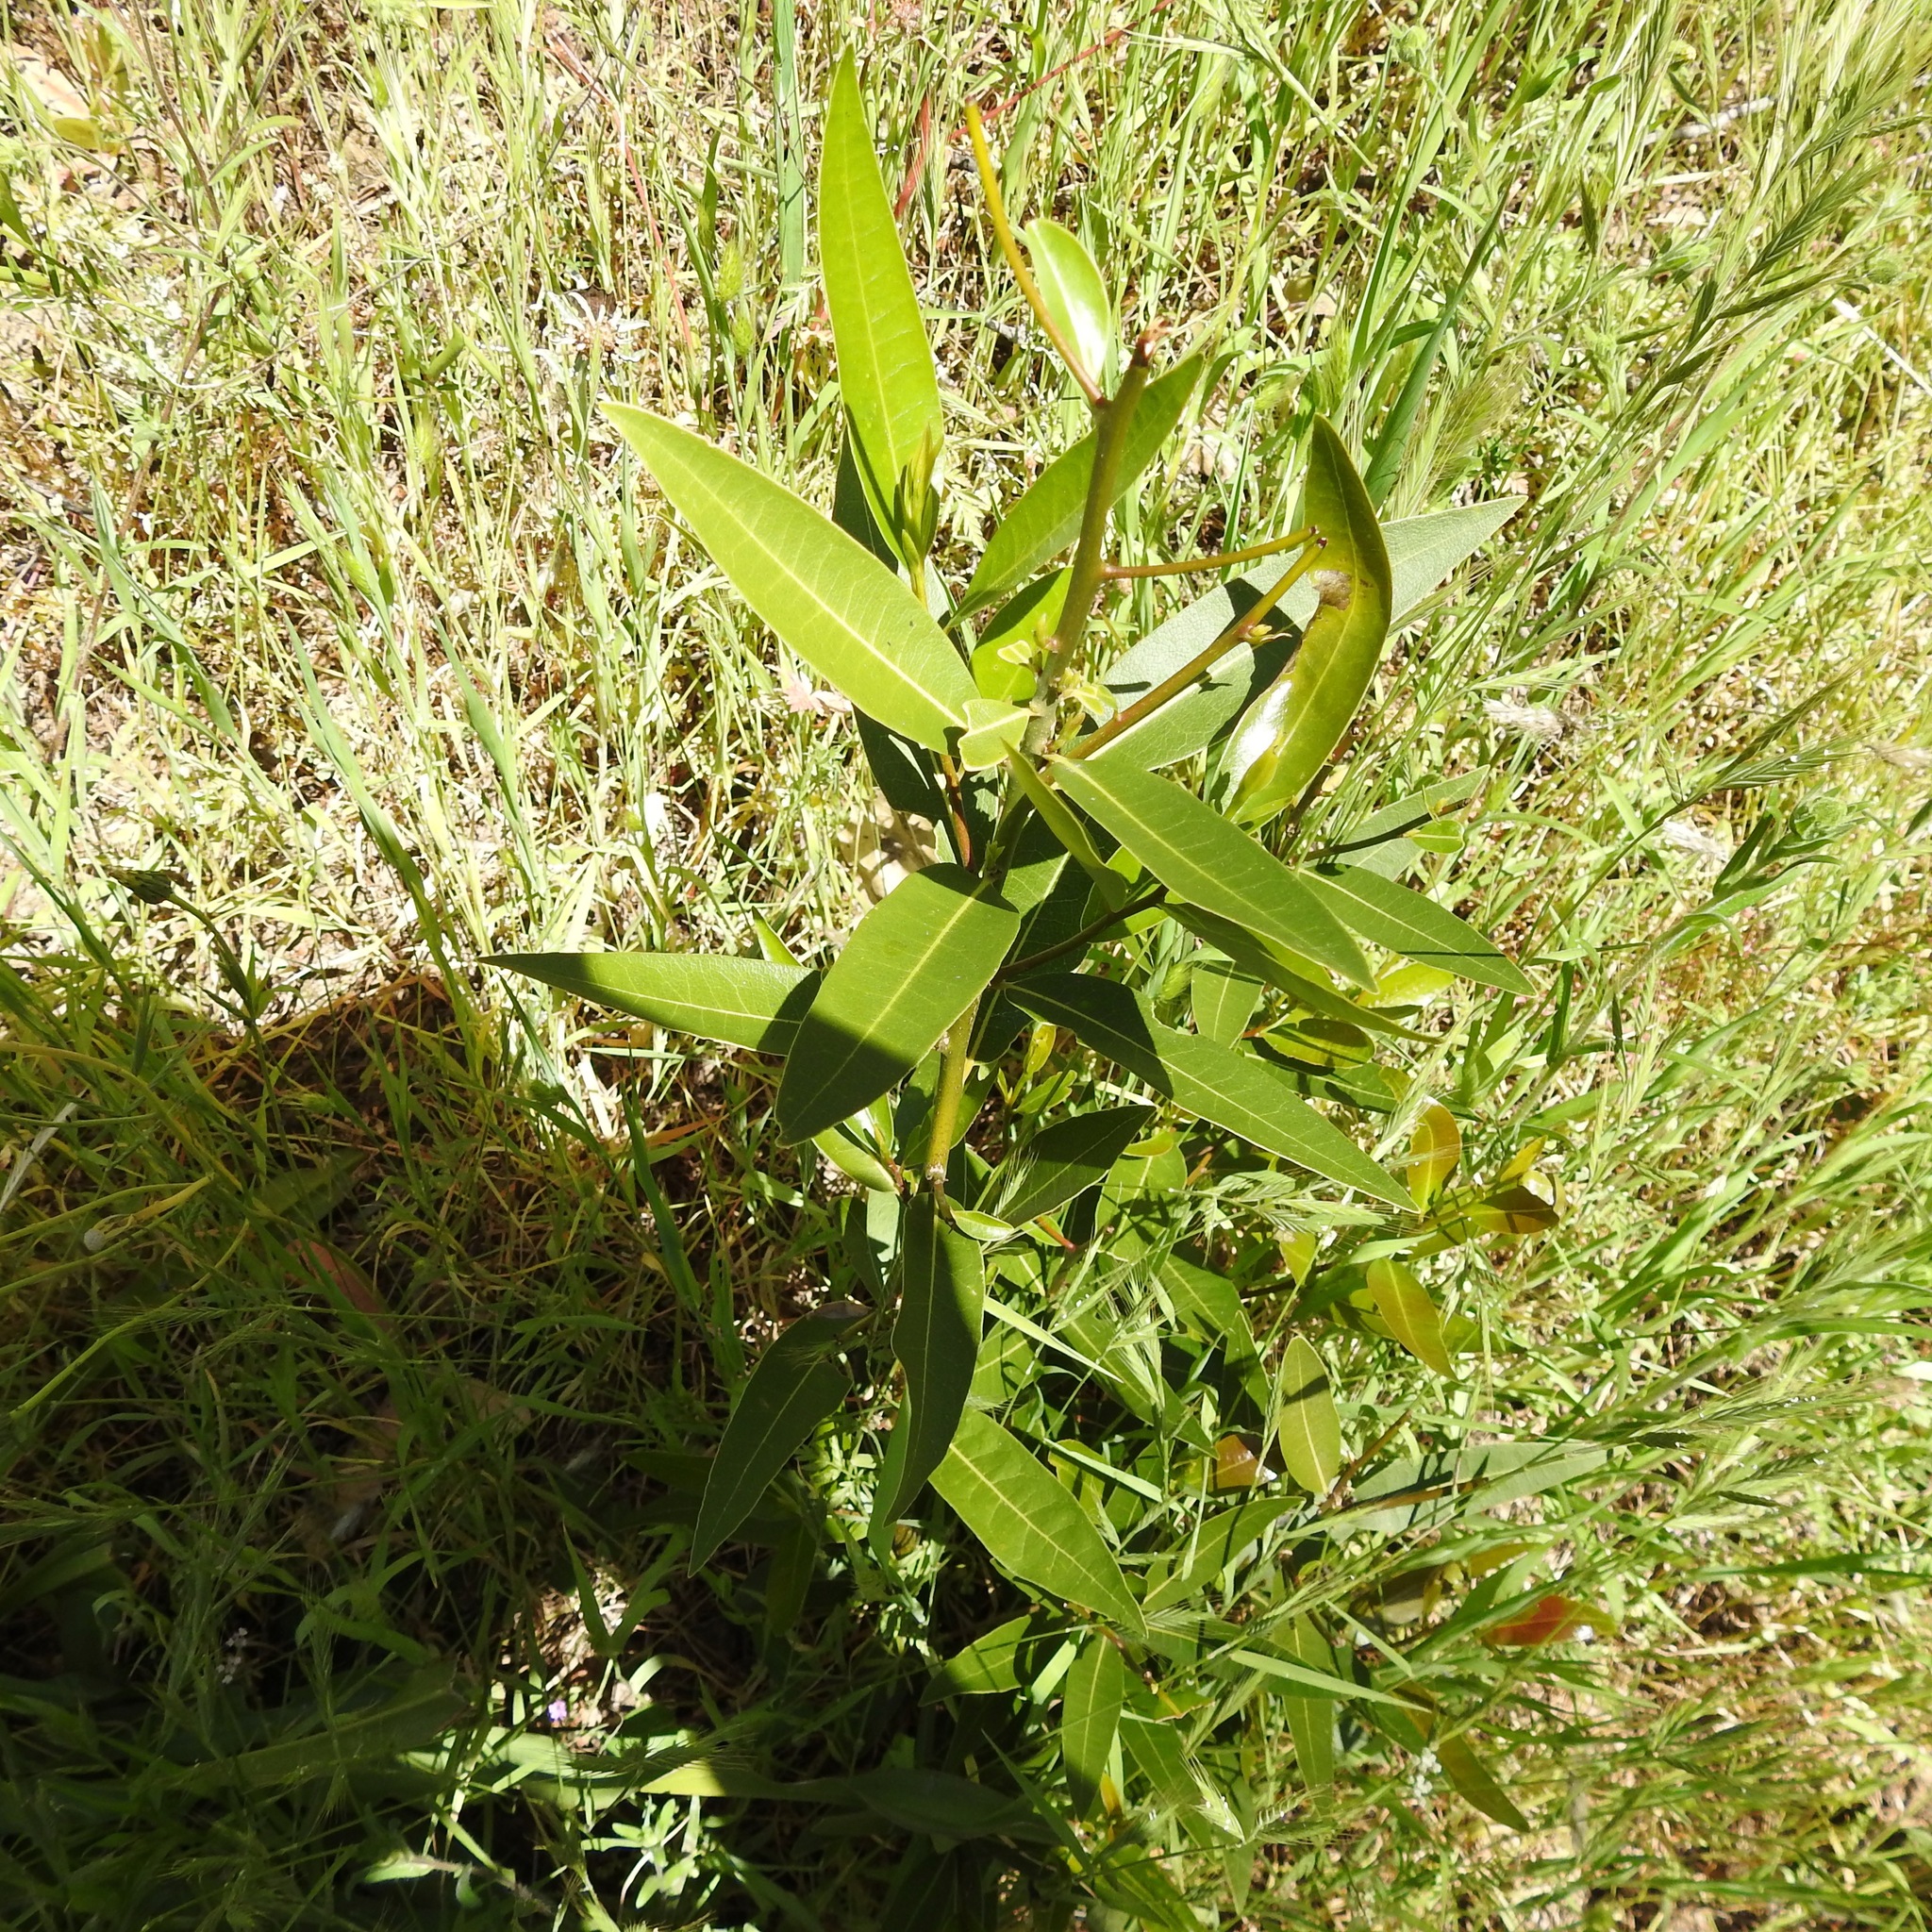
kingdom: Plantae
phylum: Tracheophyta
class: Magnoliopsida
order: Laurales
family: Lauraceae
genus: Umbellularia
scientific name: Umbellularia californica
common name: California bay
